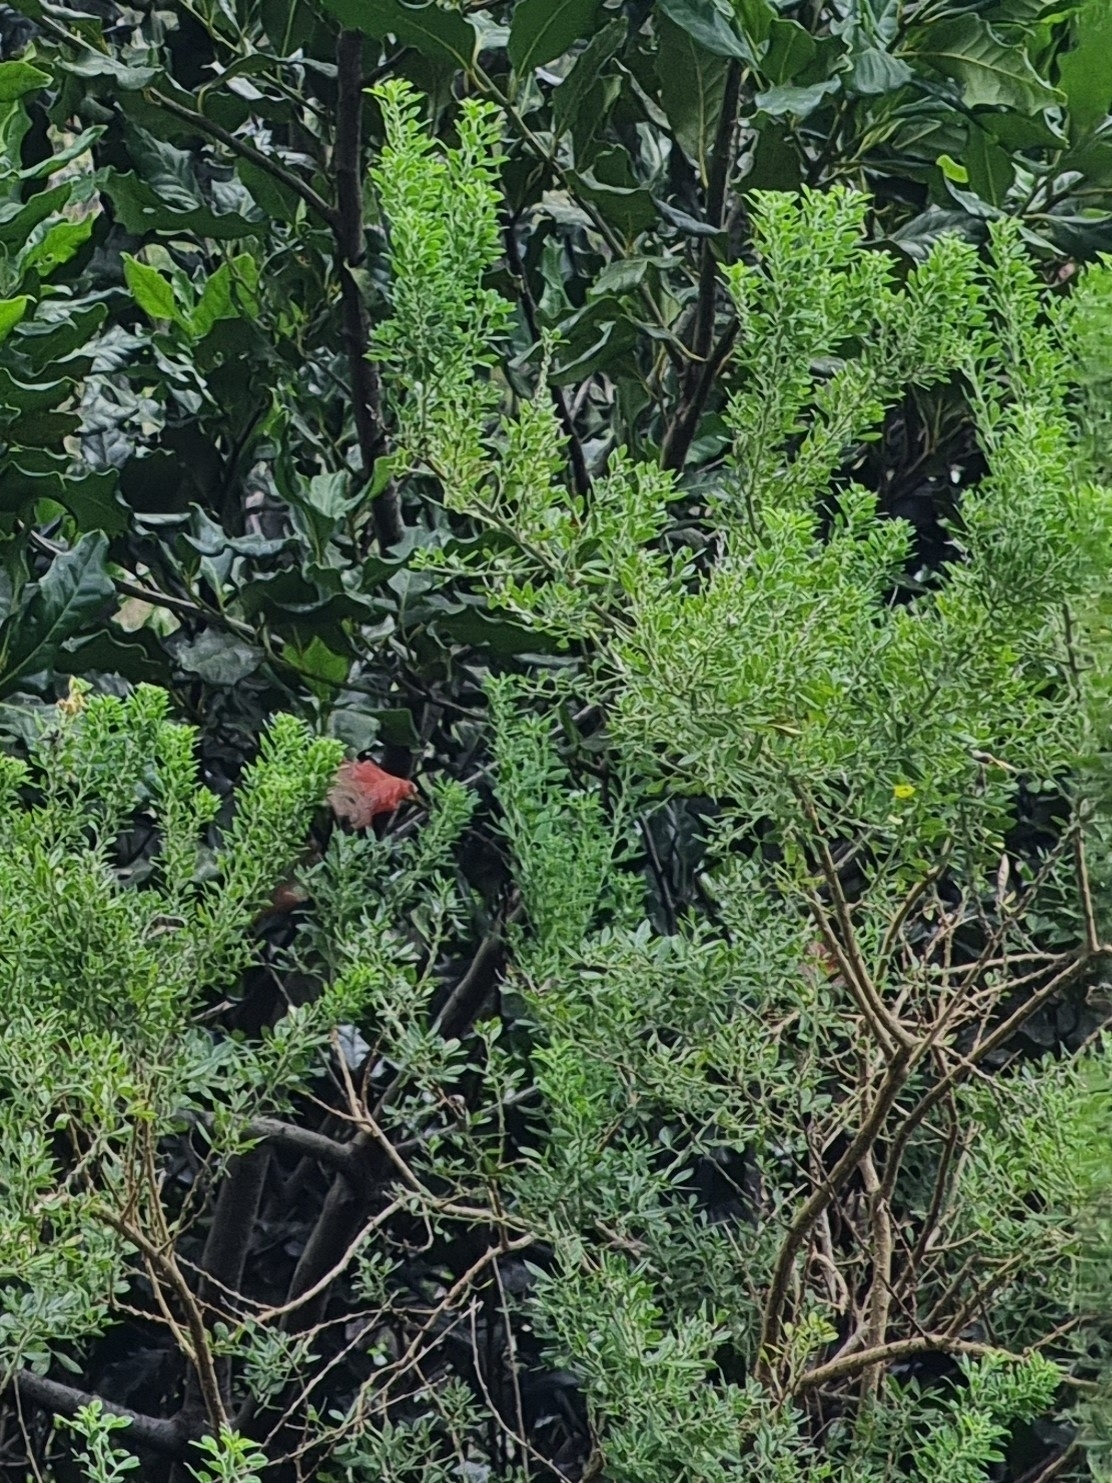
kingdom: Plantae
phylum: Tracheophyta
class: Magnoliopsida
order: Fabales
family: Fabaceae
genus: Genista
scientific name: Genista maderensis
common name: Madeira dyer's greenweed
